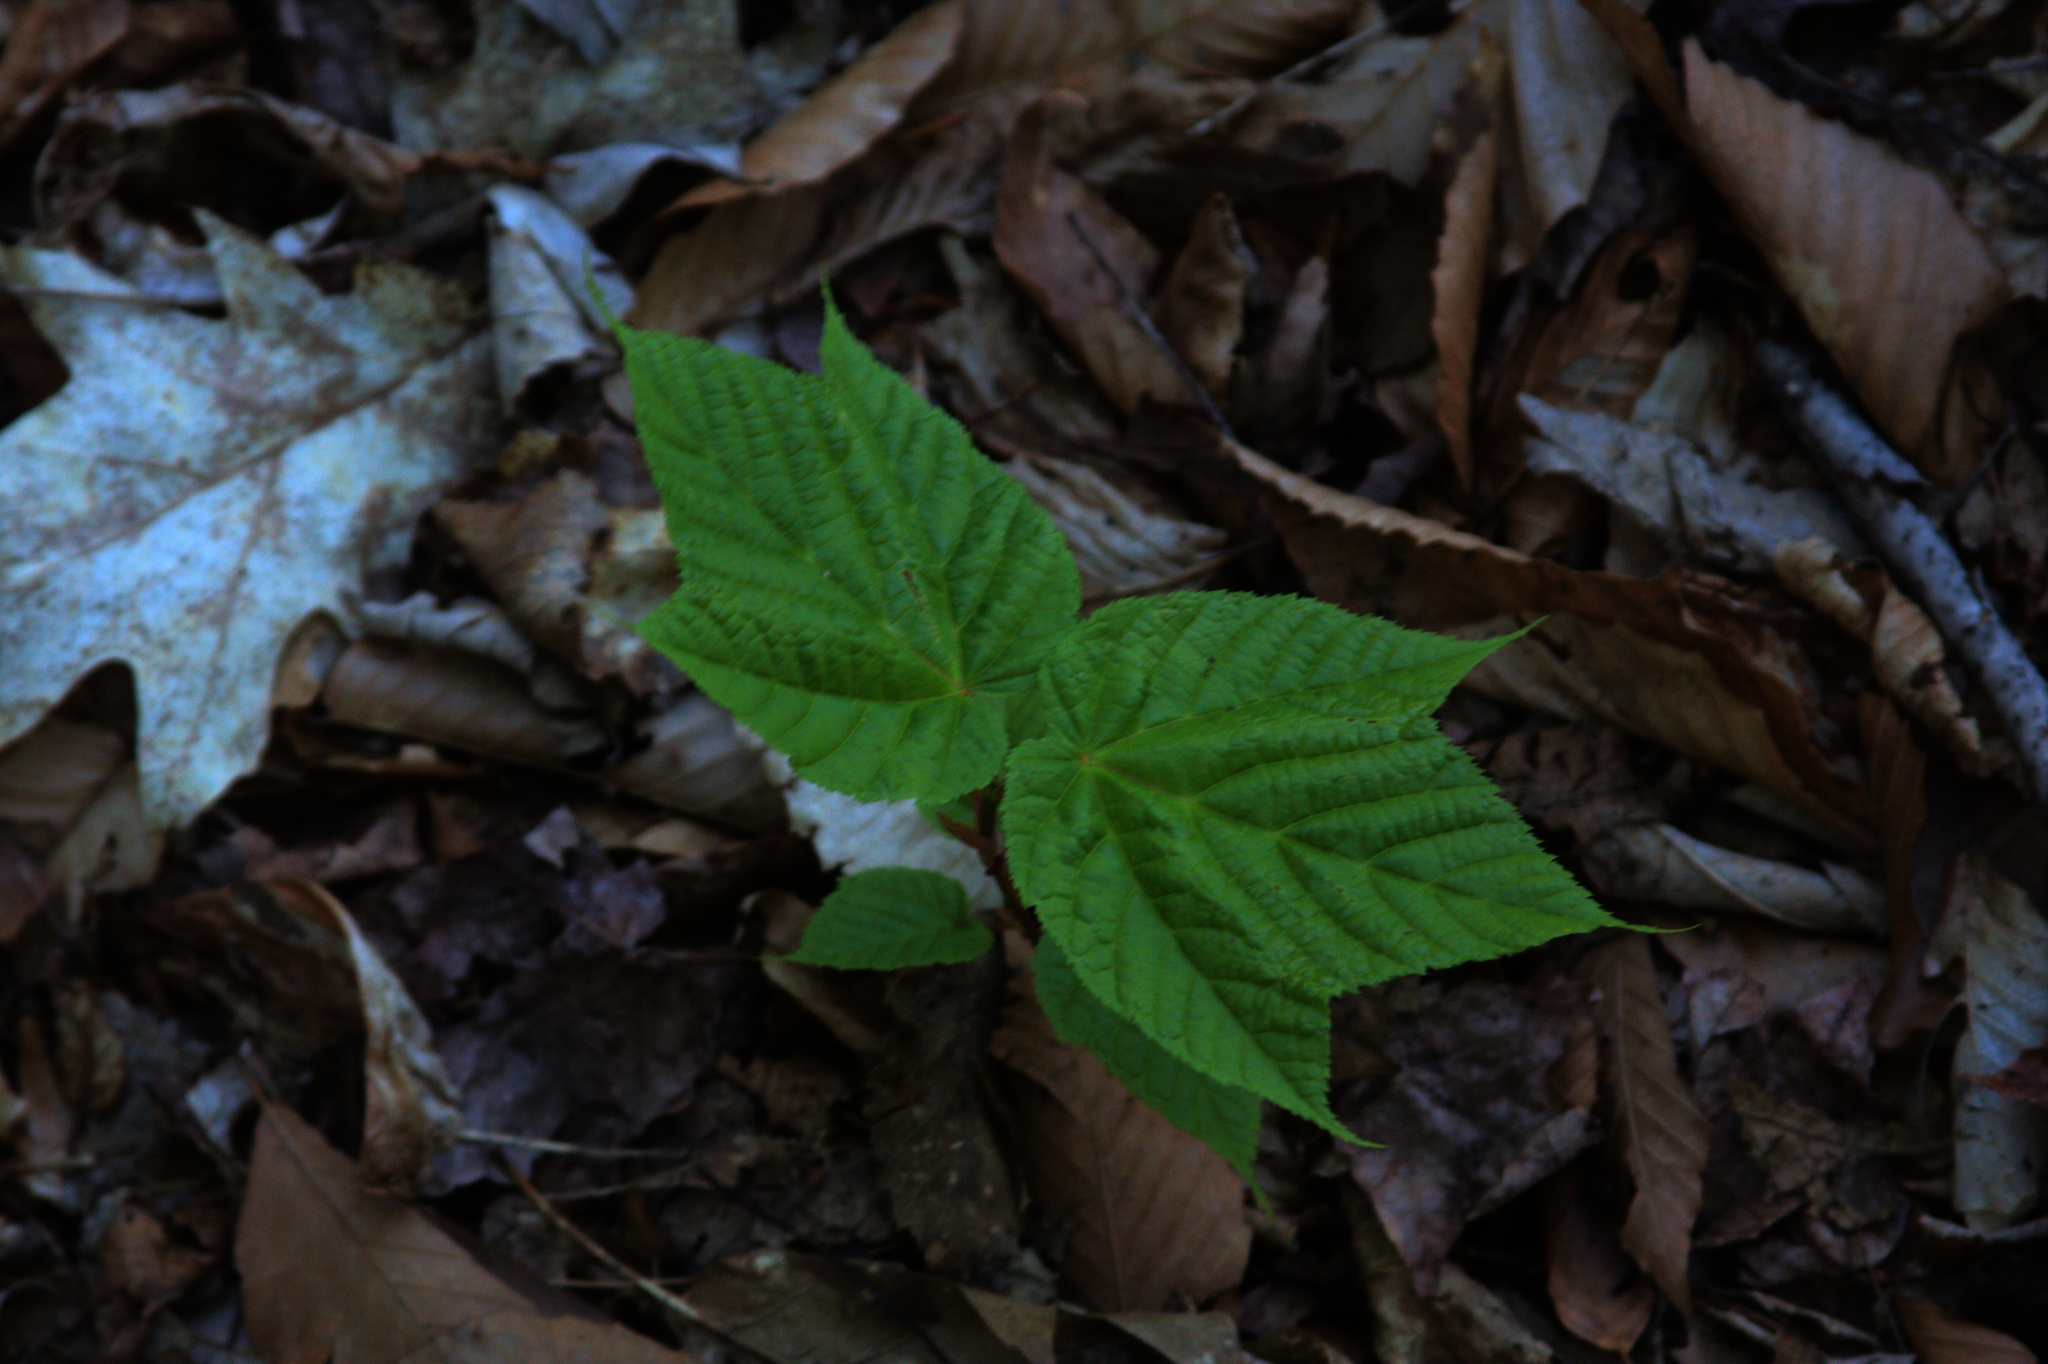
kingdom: Plantae
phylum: Tracheophyta
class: Magnoliopsida
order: Sapindales
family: Sapindaceae
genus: Acer
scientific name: Acer pensylvanicum
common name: Moosewood
